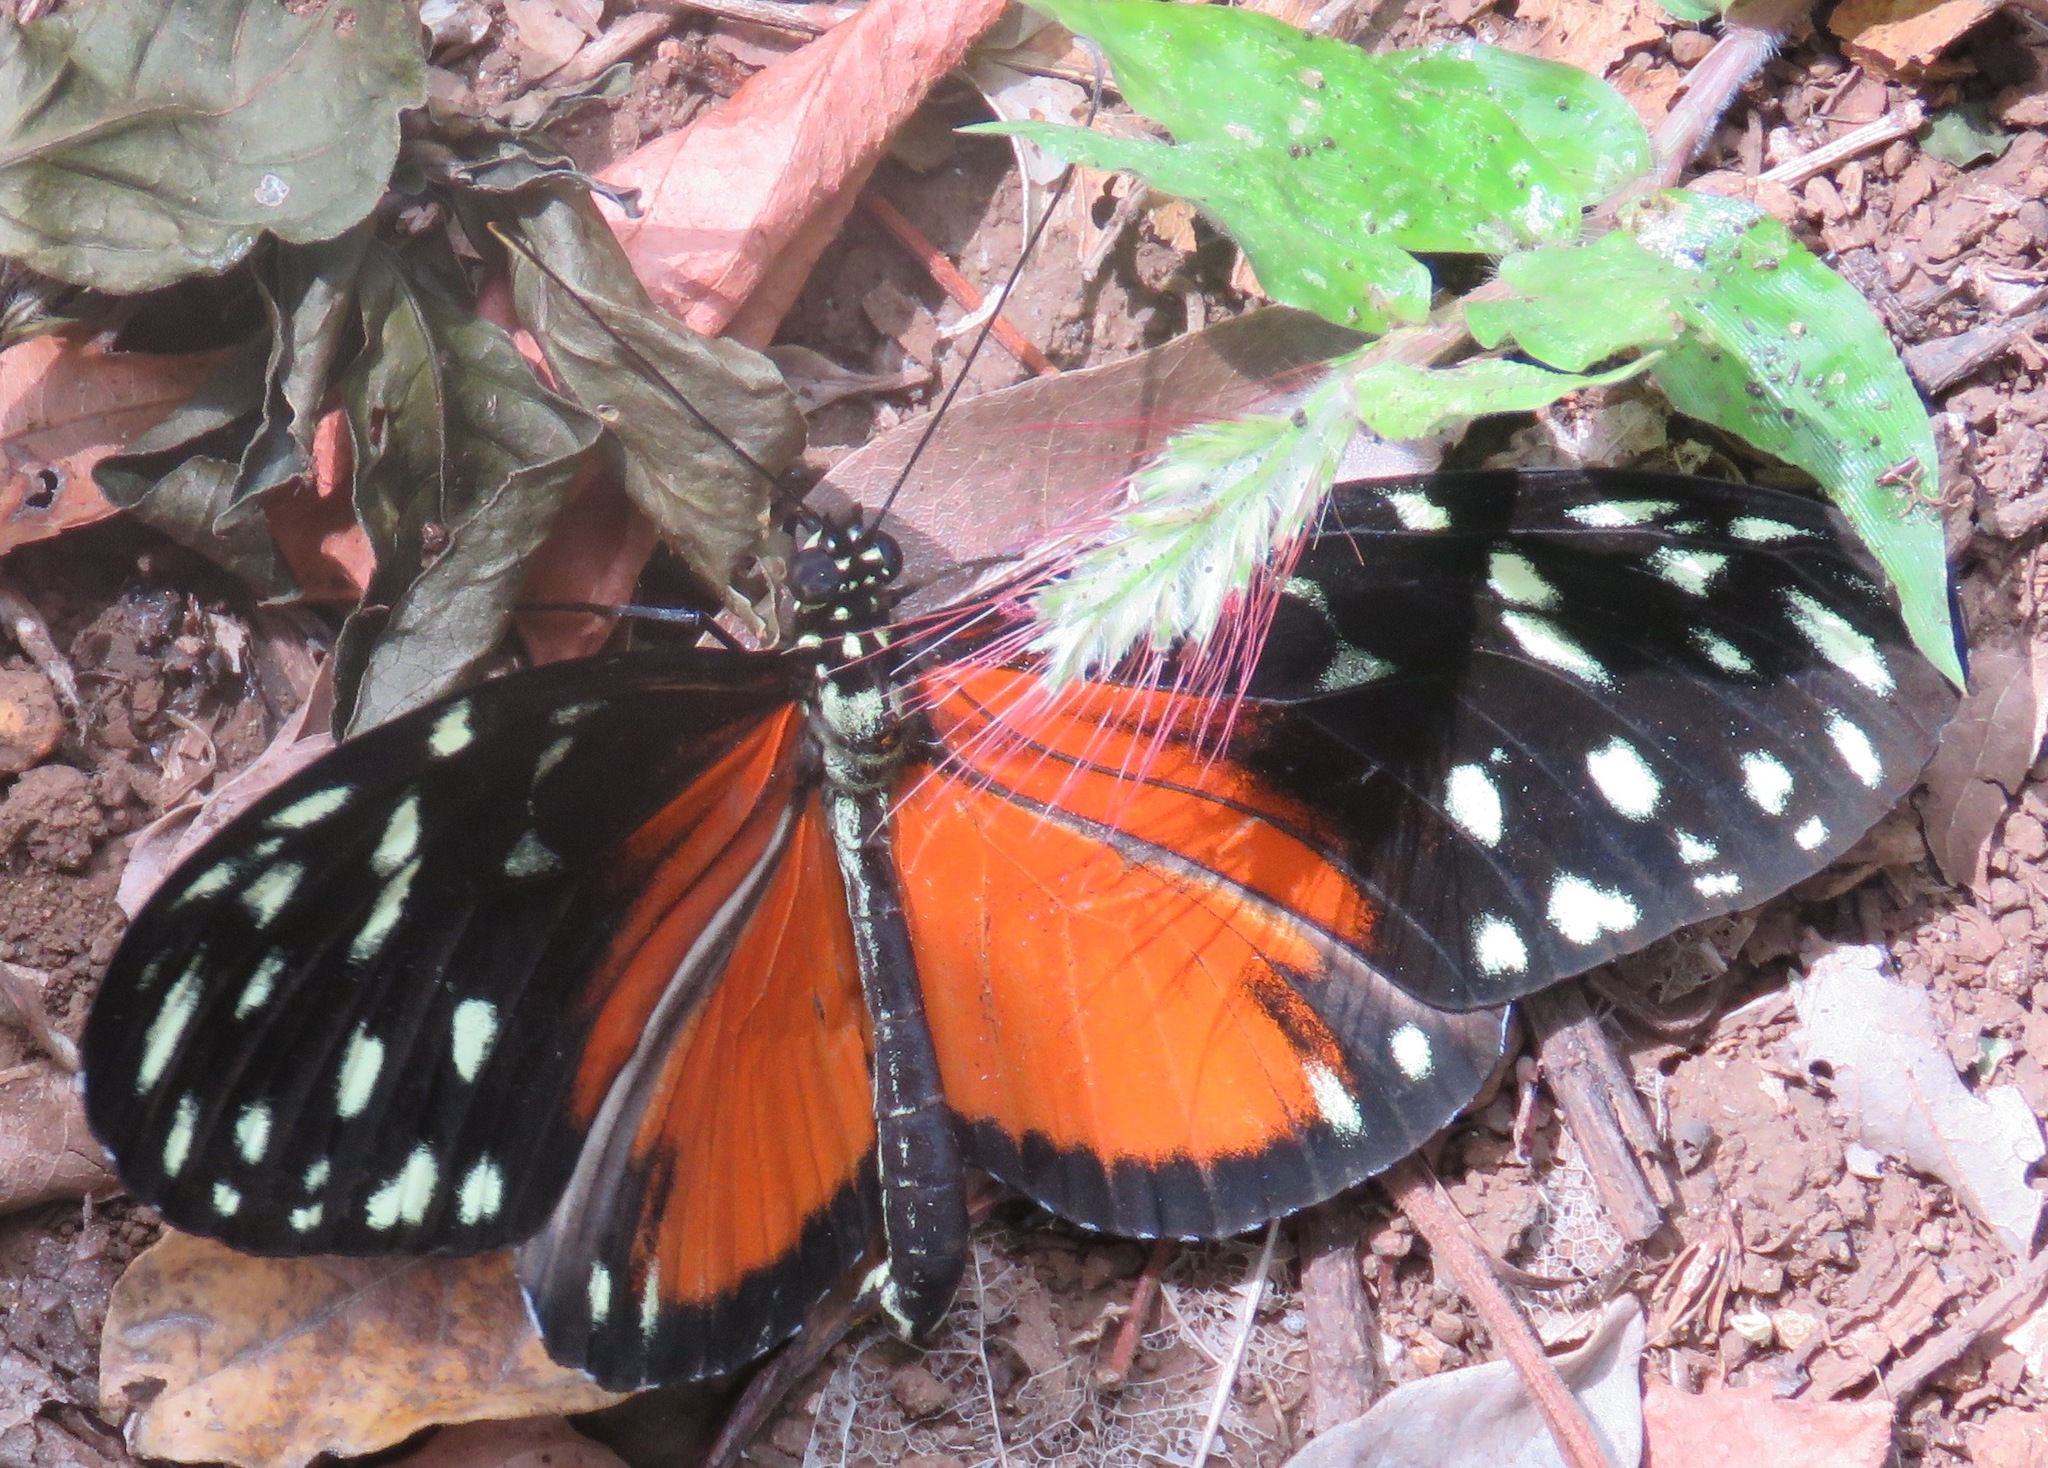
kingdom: Animalia
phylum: Arthropoda
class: Insecta
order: Lepidoptera
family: Nymphalidae
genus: Heliconius
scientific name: Heliconius hecale
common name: Tiger longwing
